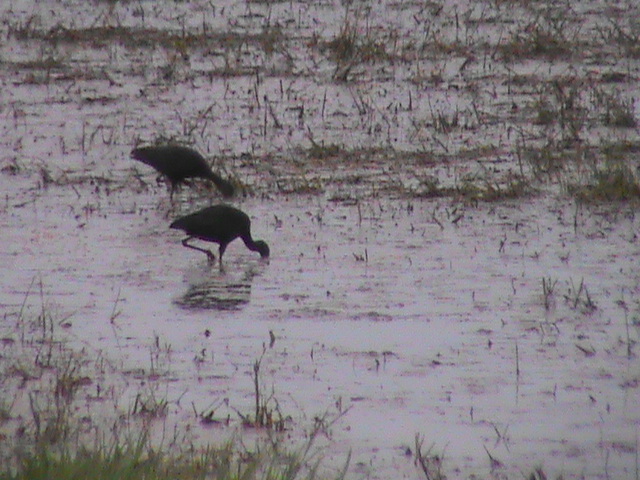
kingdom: Animalia
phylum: Chordata
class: Aves
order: Pelecaniformes
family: Threskiornithidae
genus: Plegadis
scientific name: Plegadis falcinellus
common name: Glossy ibis
